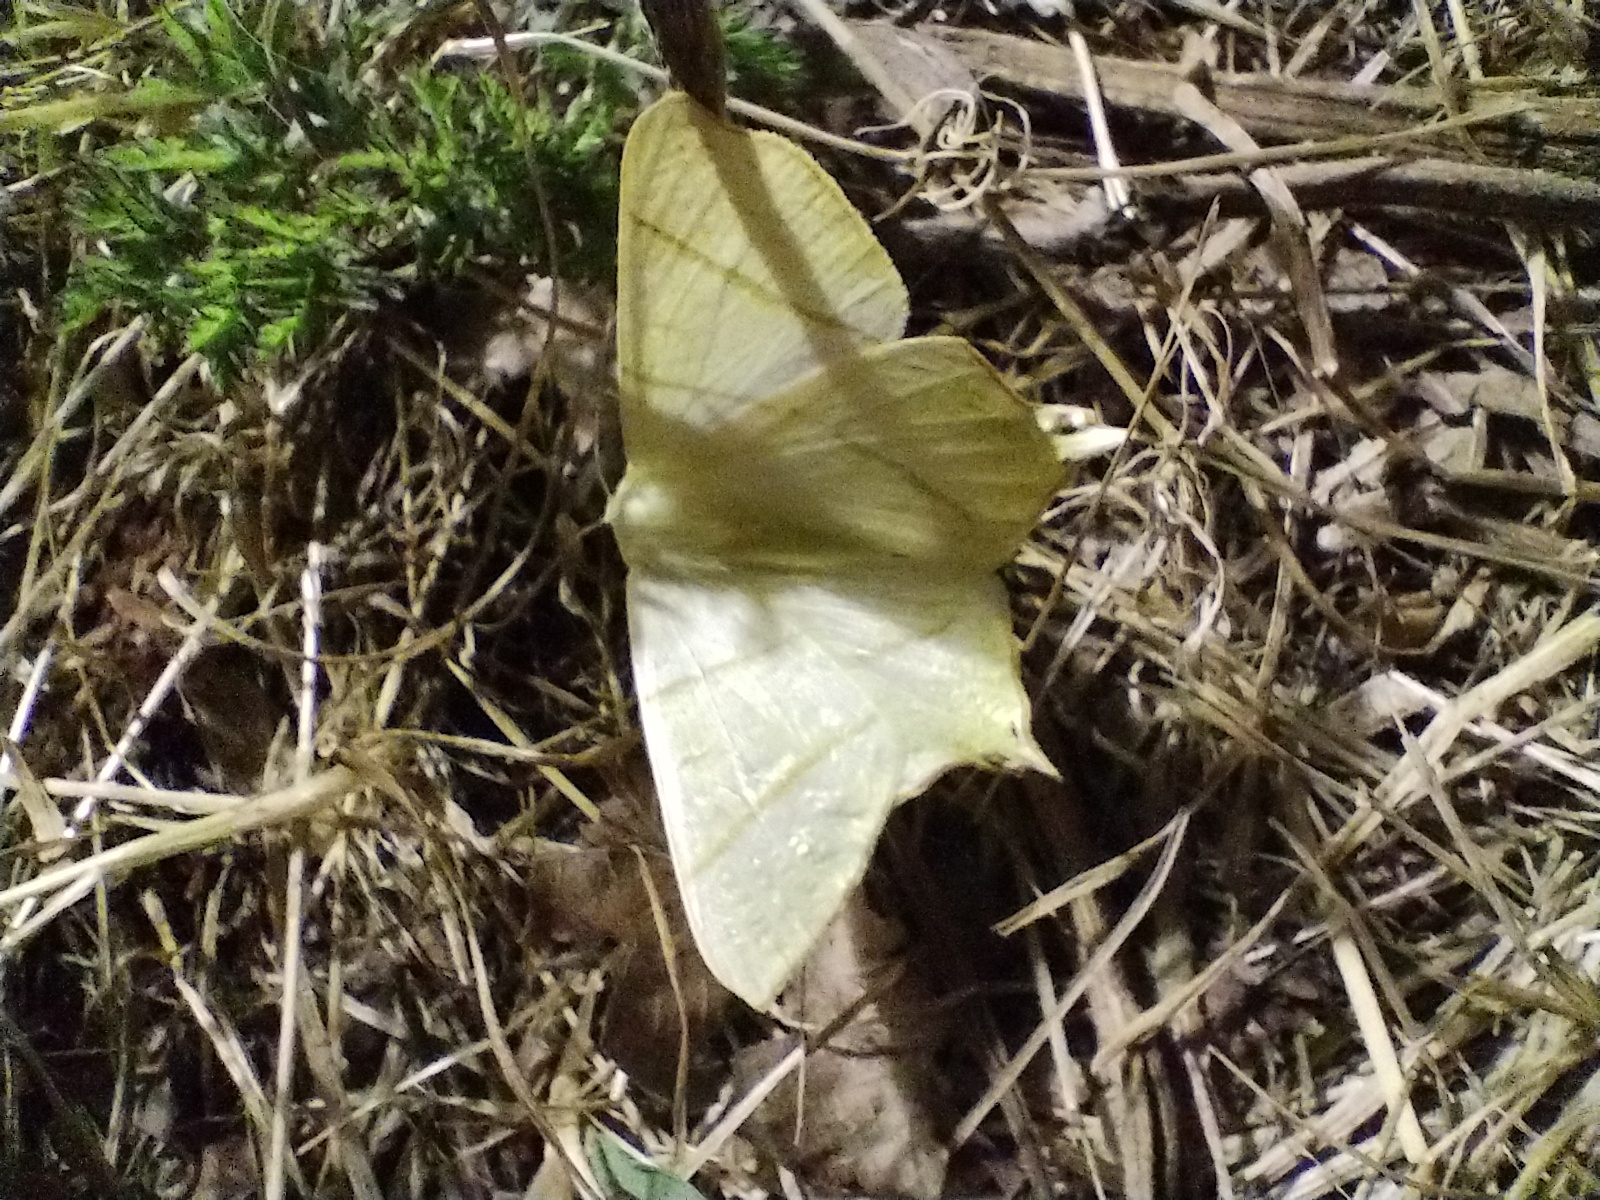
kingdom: Animalia
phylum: Arthropoda
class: Insecta
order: Lepidoptera
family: Geometridae
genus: Ourapteryx
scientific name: Ourapteryx sambucaria
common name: Swallow-tailed moth
